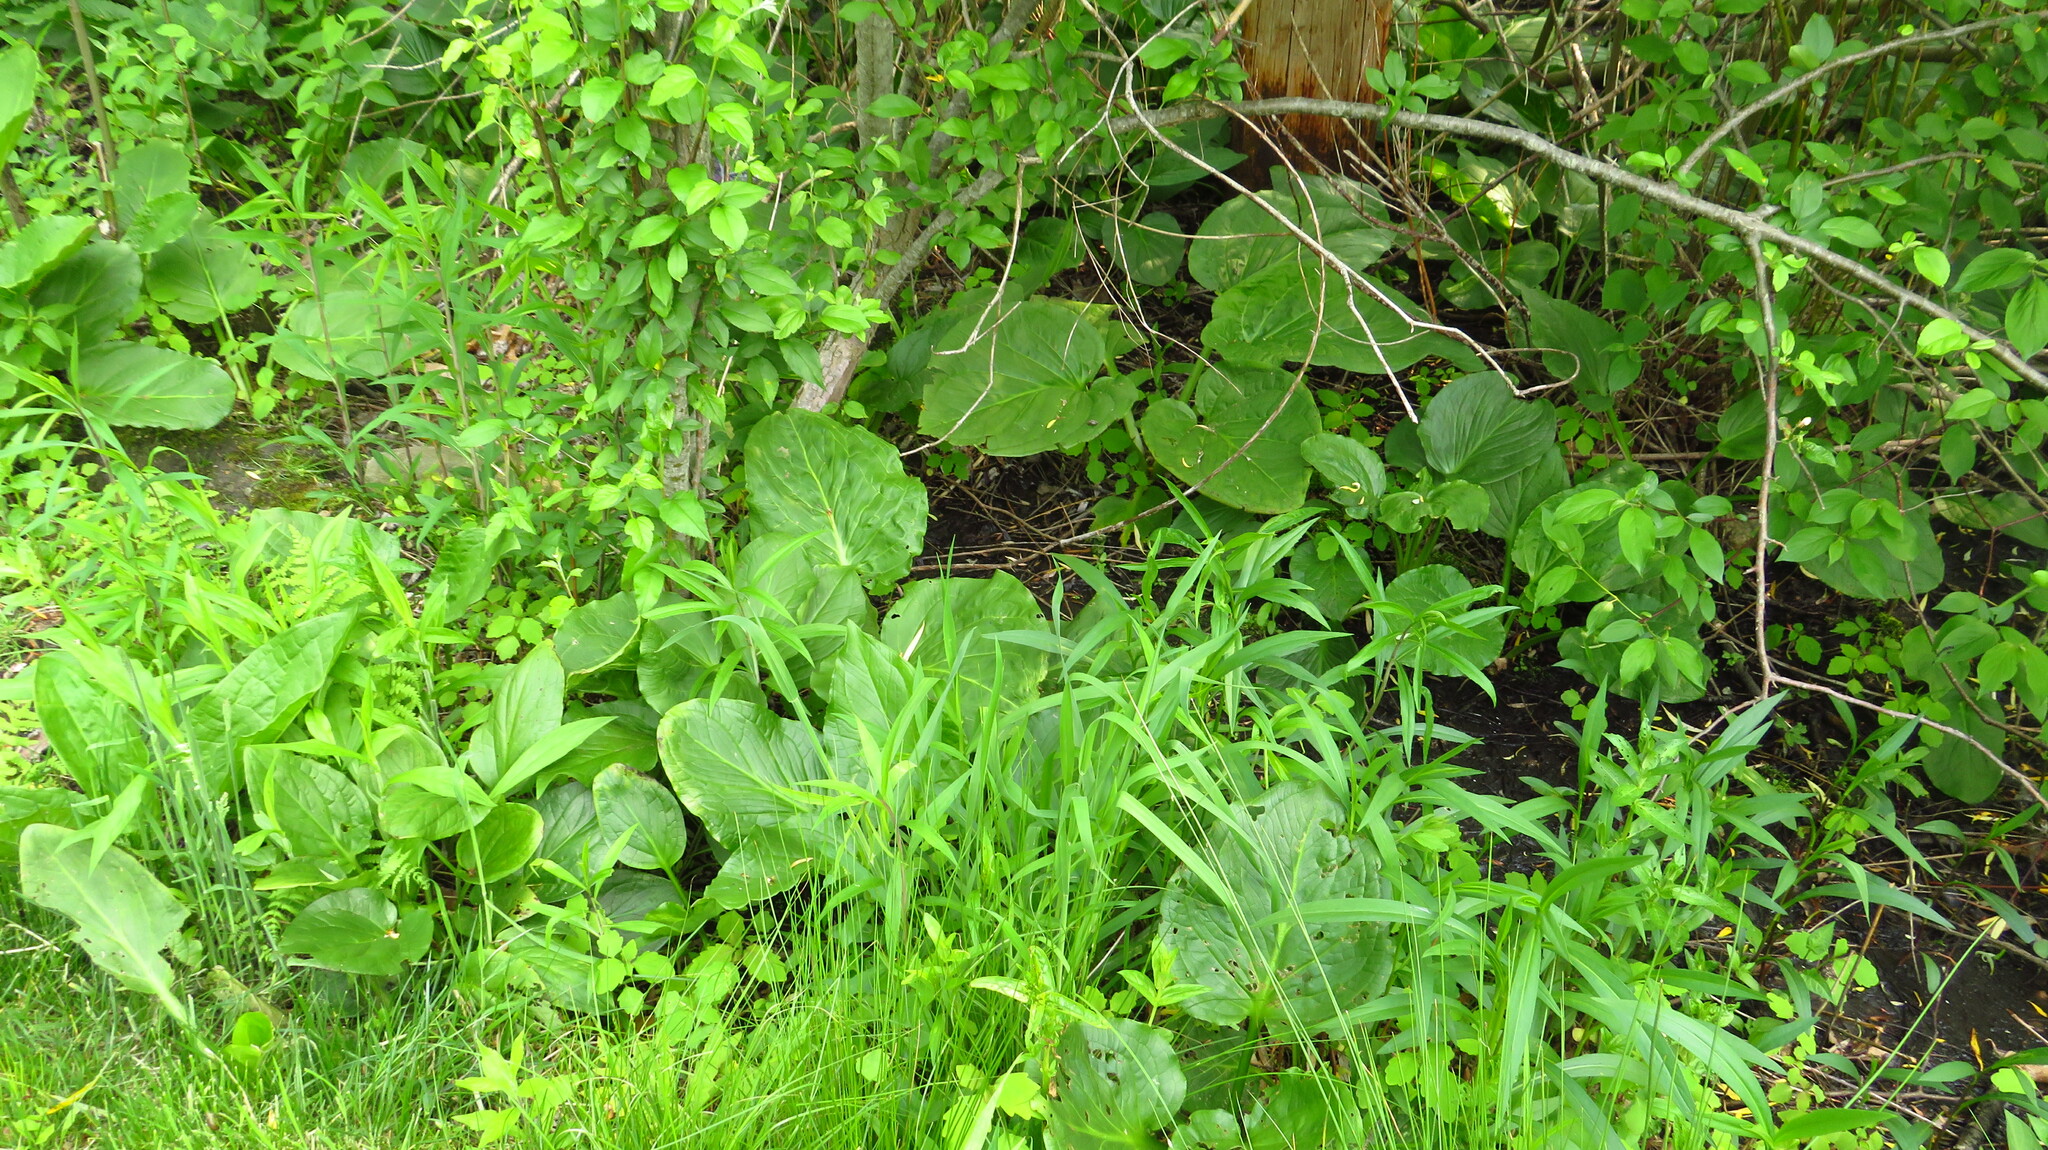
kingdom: Plantae
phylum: Tracheophyta
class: Liliopsida
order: Alismatales
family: Araceae
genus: Symplocarpus
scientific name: Symplocarpus foetidus
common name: Eastern skunk cabbage
